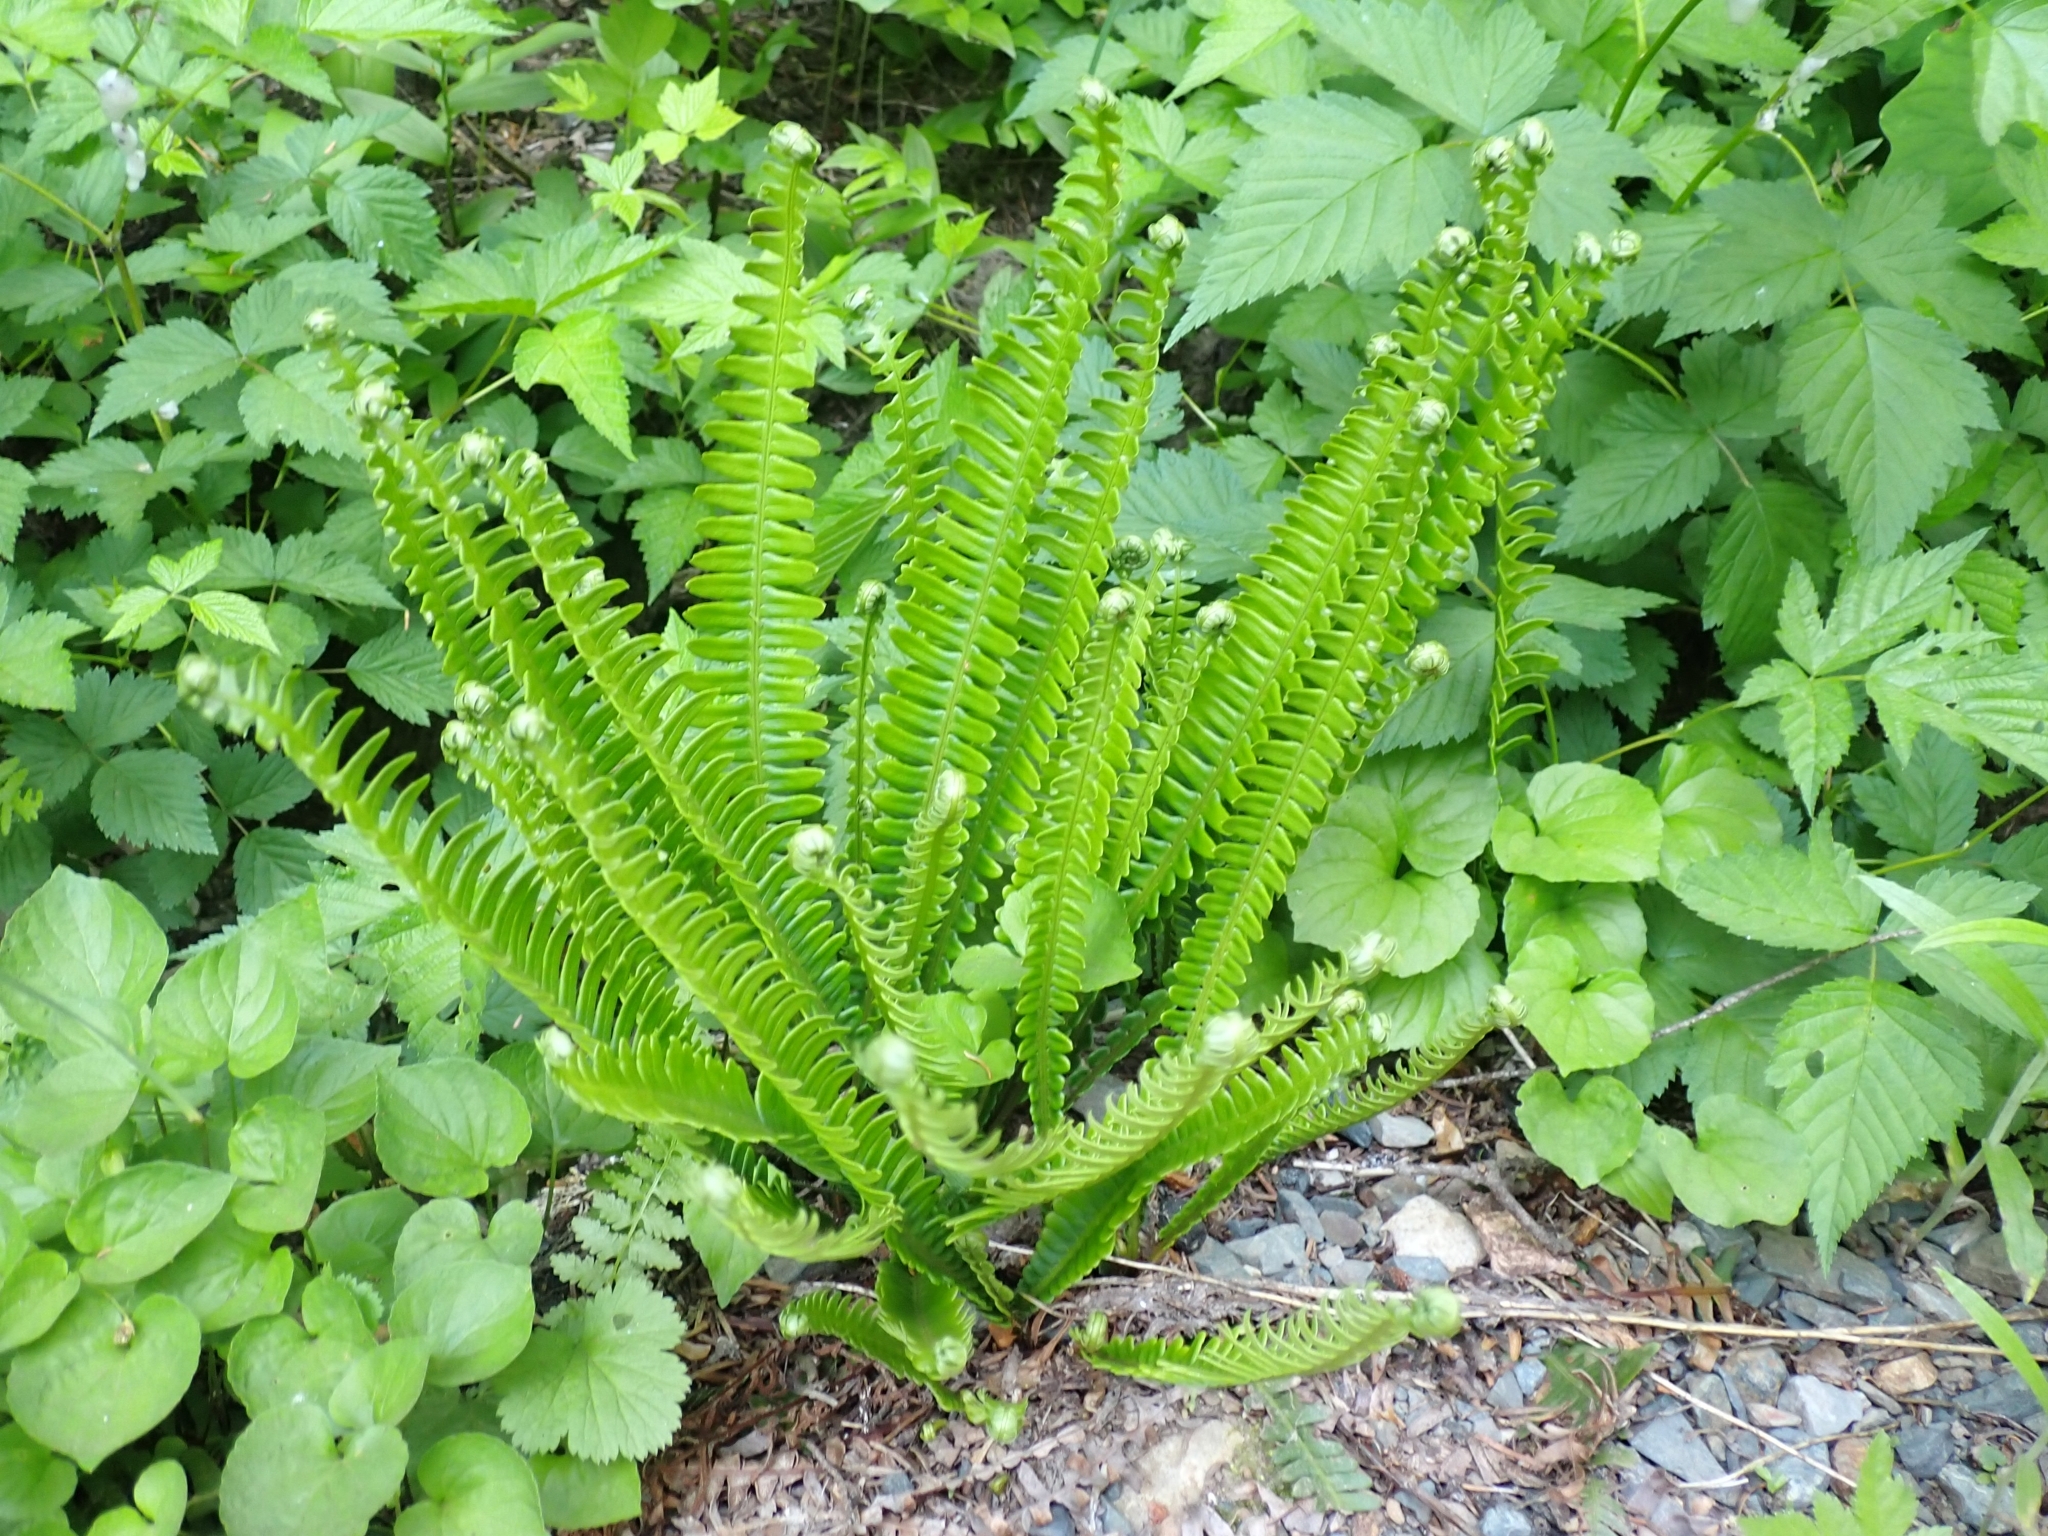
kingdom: Plantae
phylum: Tracheophyta
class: Polypodiopsida
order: Polypodiales
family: Blechnaceae
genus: Struthiopteris
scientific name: Struthiopteris spicant
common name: Deer fern
